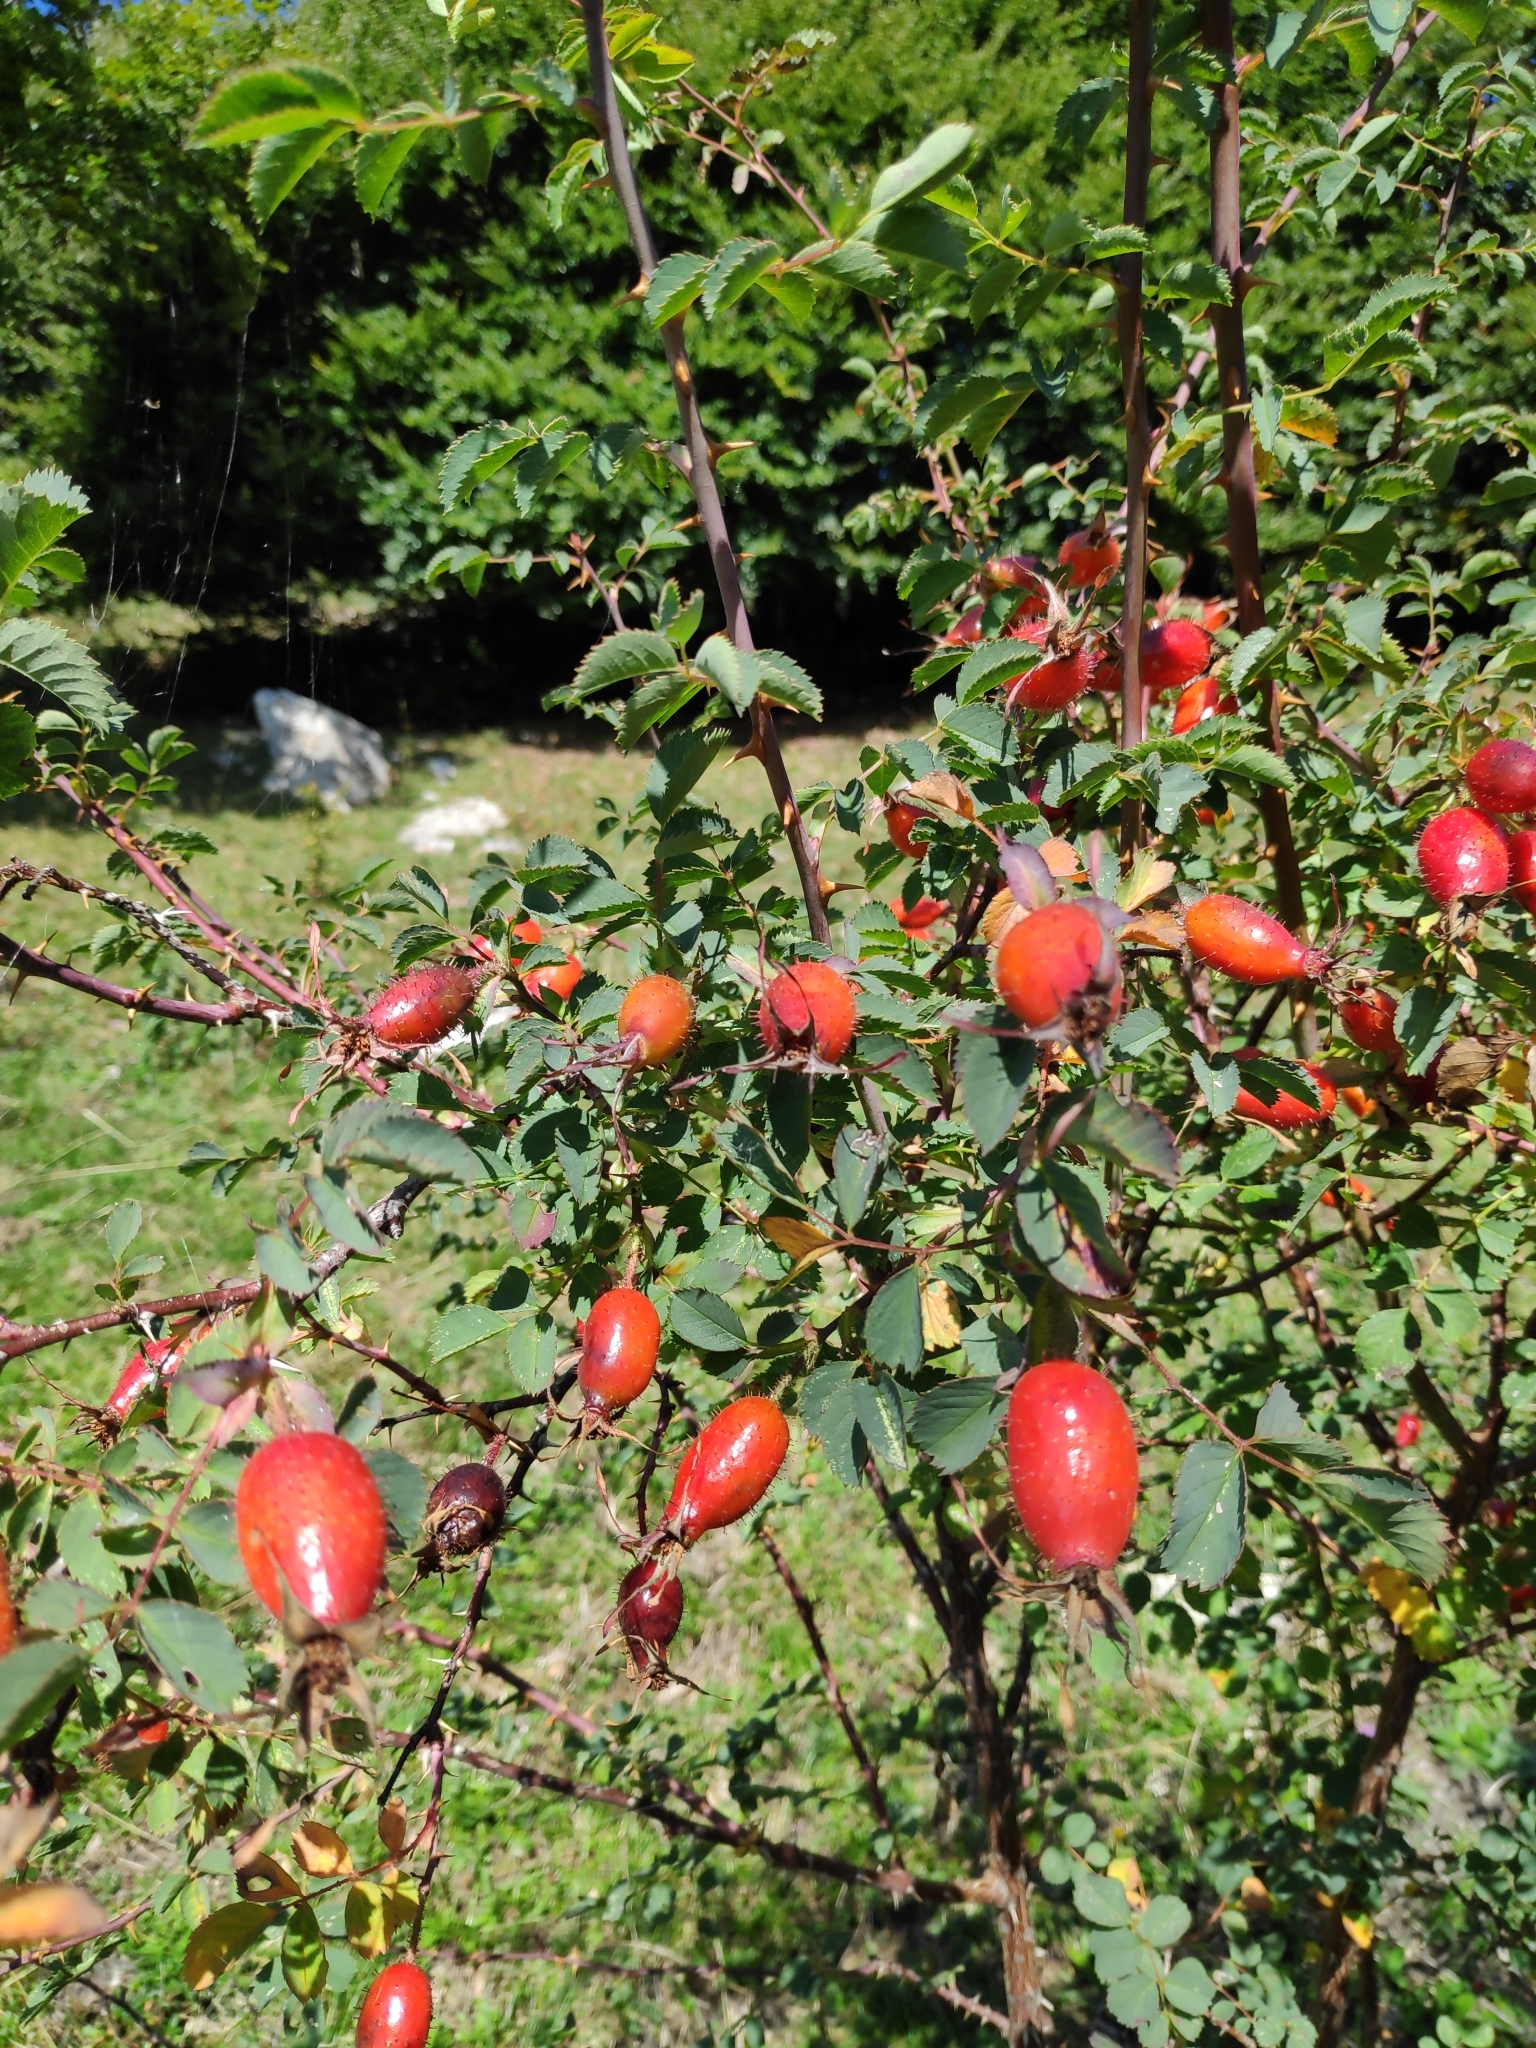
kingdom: Plantae
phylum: Tracheophyta
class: Magnoliopsida
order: Rosales
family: Rosaceae
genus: Rosa
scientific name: Rosa montana
